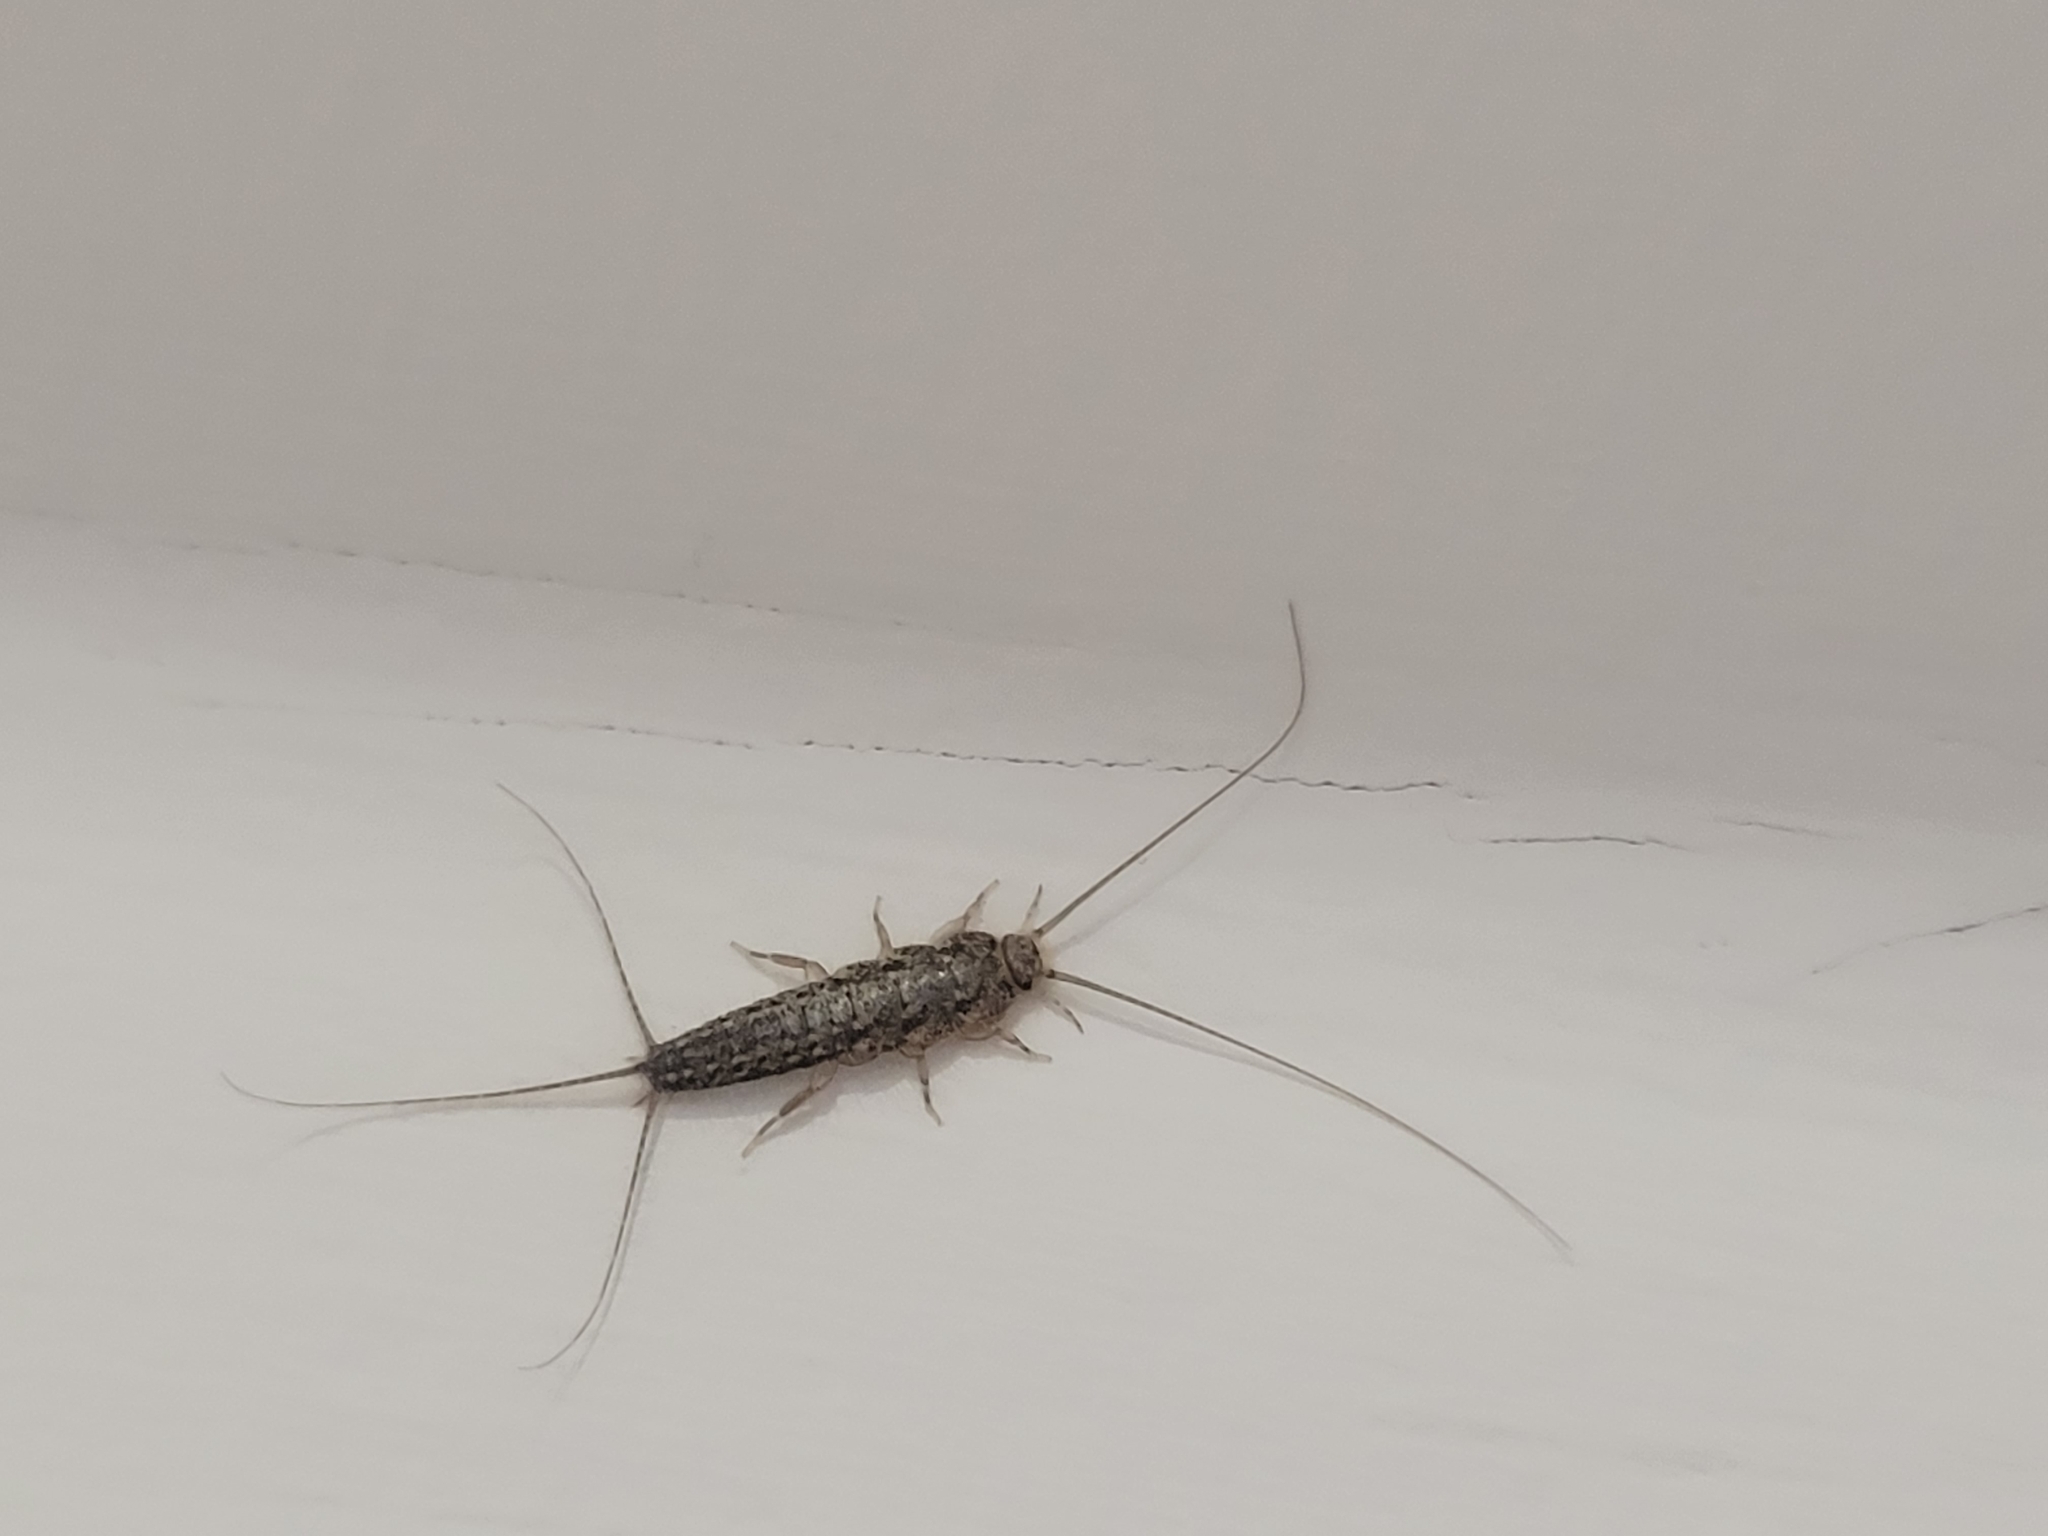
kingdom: Animalia
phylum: Arthropoda
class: Insecta
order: Zygentoma
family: Lepismatidae
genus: Ctenolepisma
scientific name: Ctenolepisma lineata
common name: Four-lined silverfish
